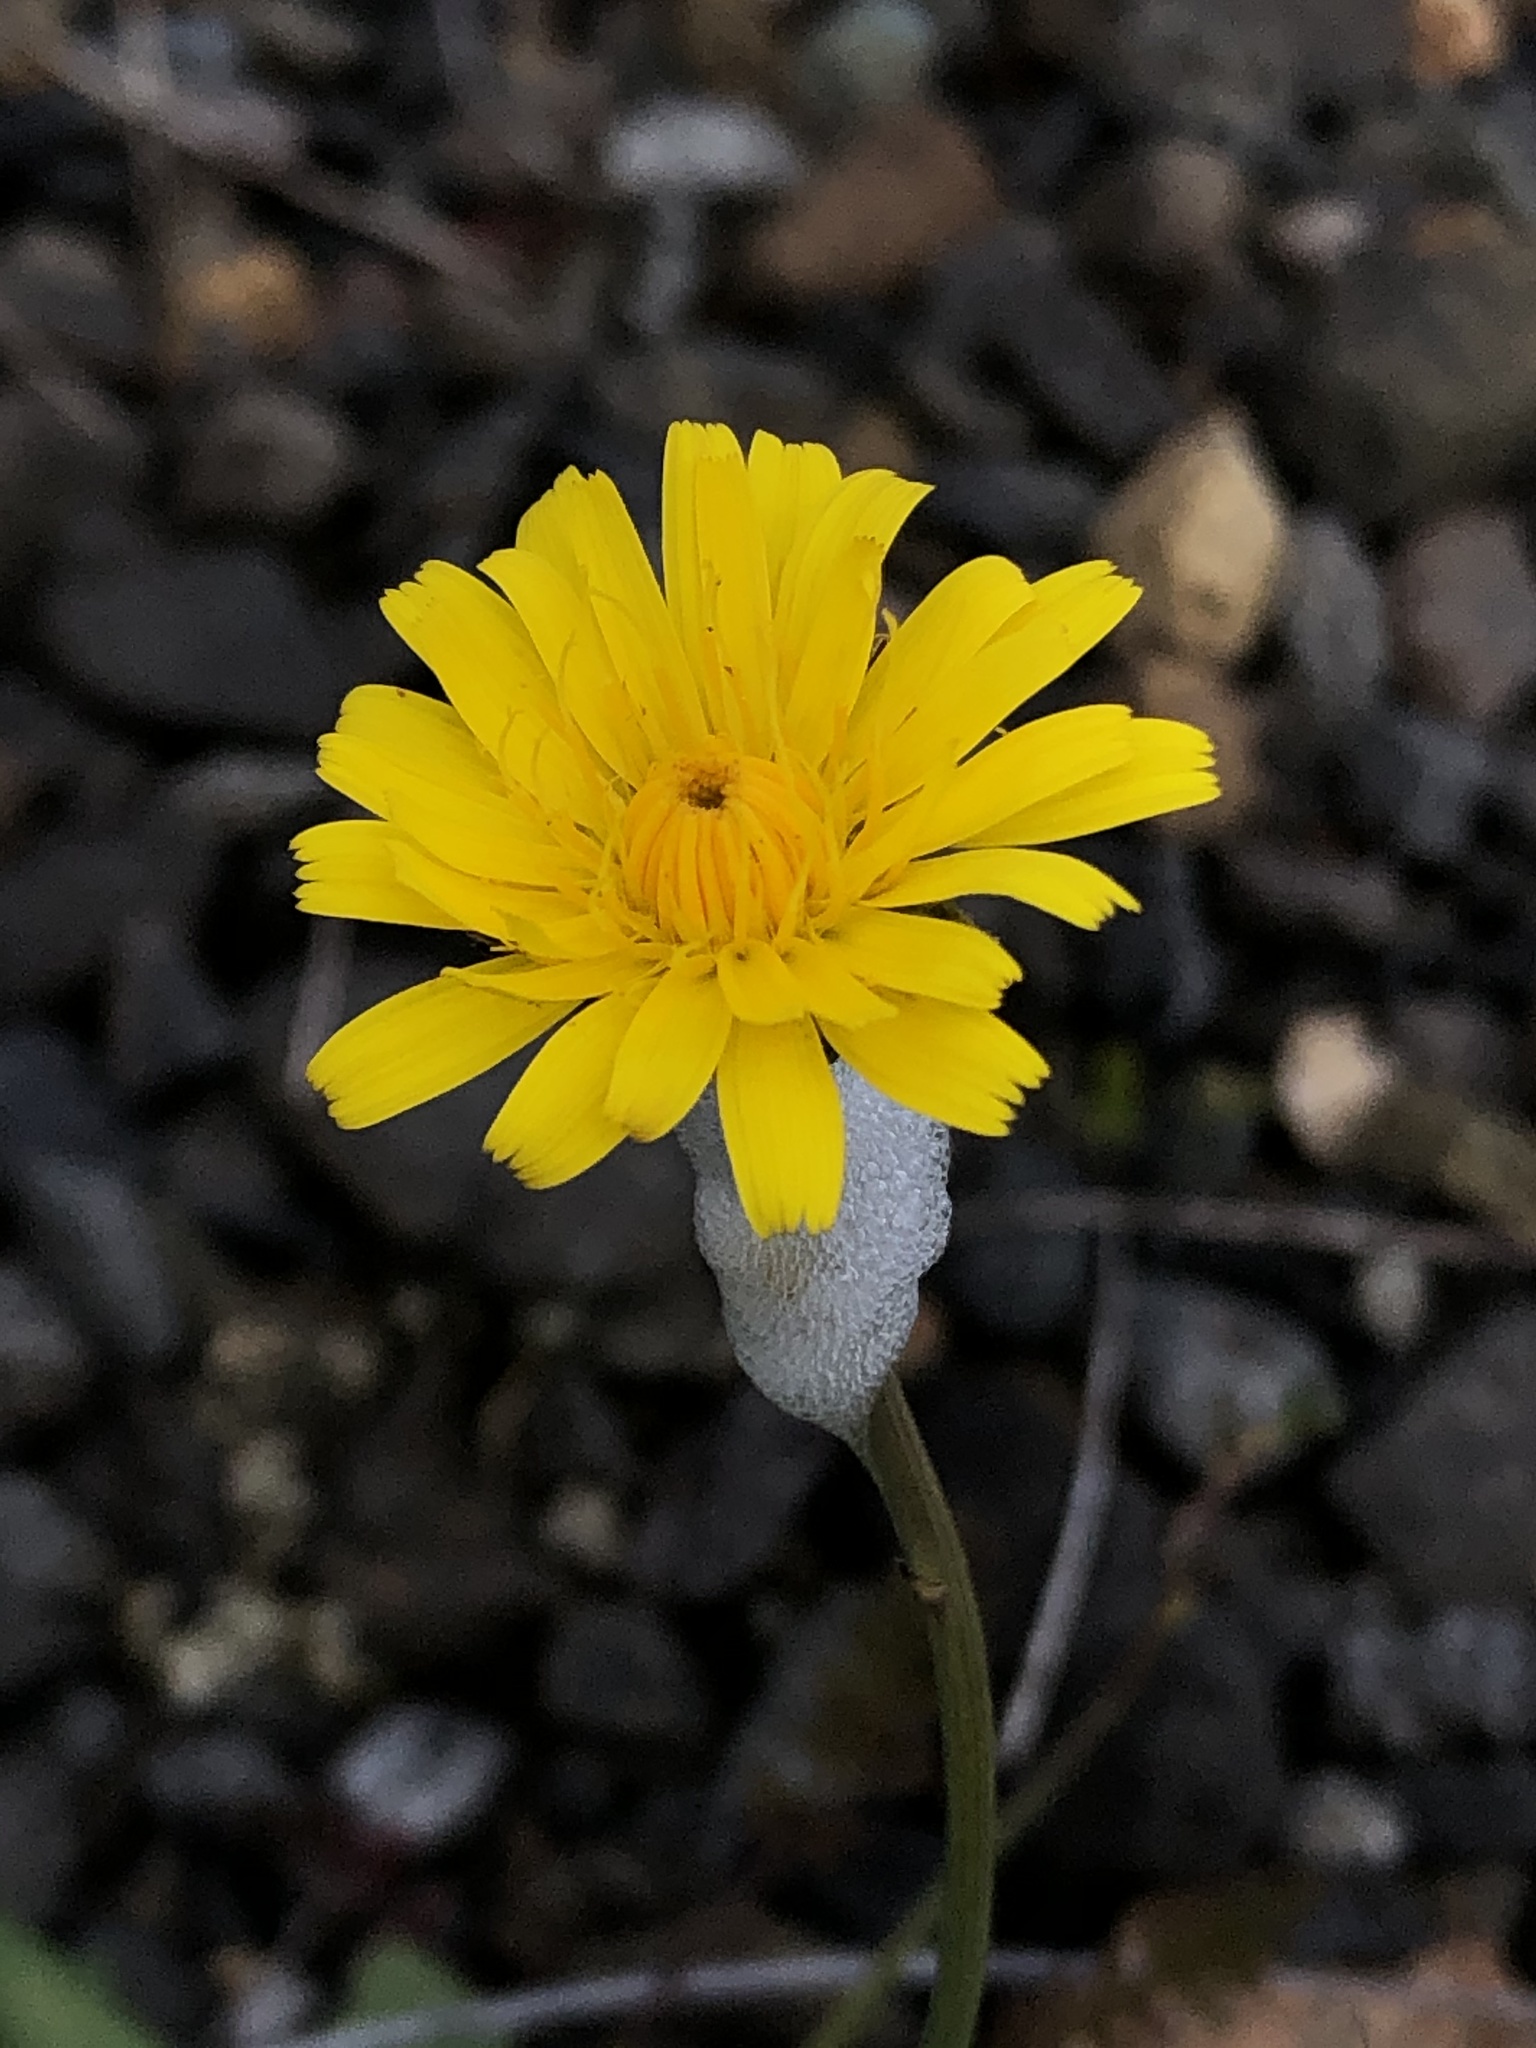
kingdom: Plantae
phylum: Tracheophyta
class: Magnoliopsida
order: Asterales
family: Asteraceae
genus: Hypochaeris
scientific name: Hypochaeris radicata
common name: Flatweed
